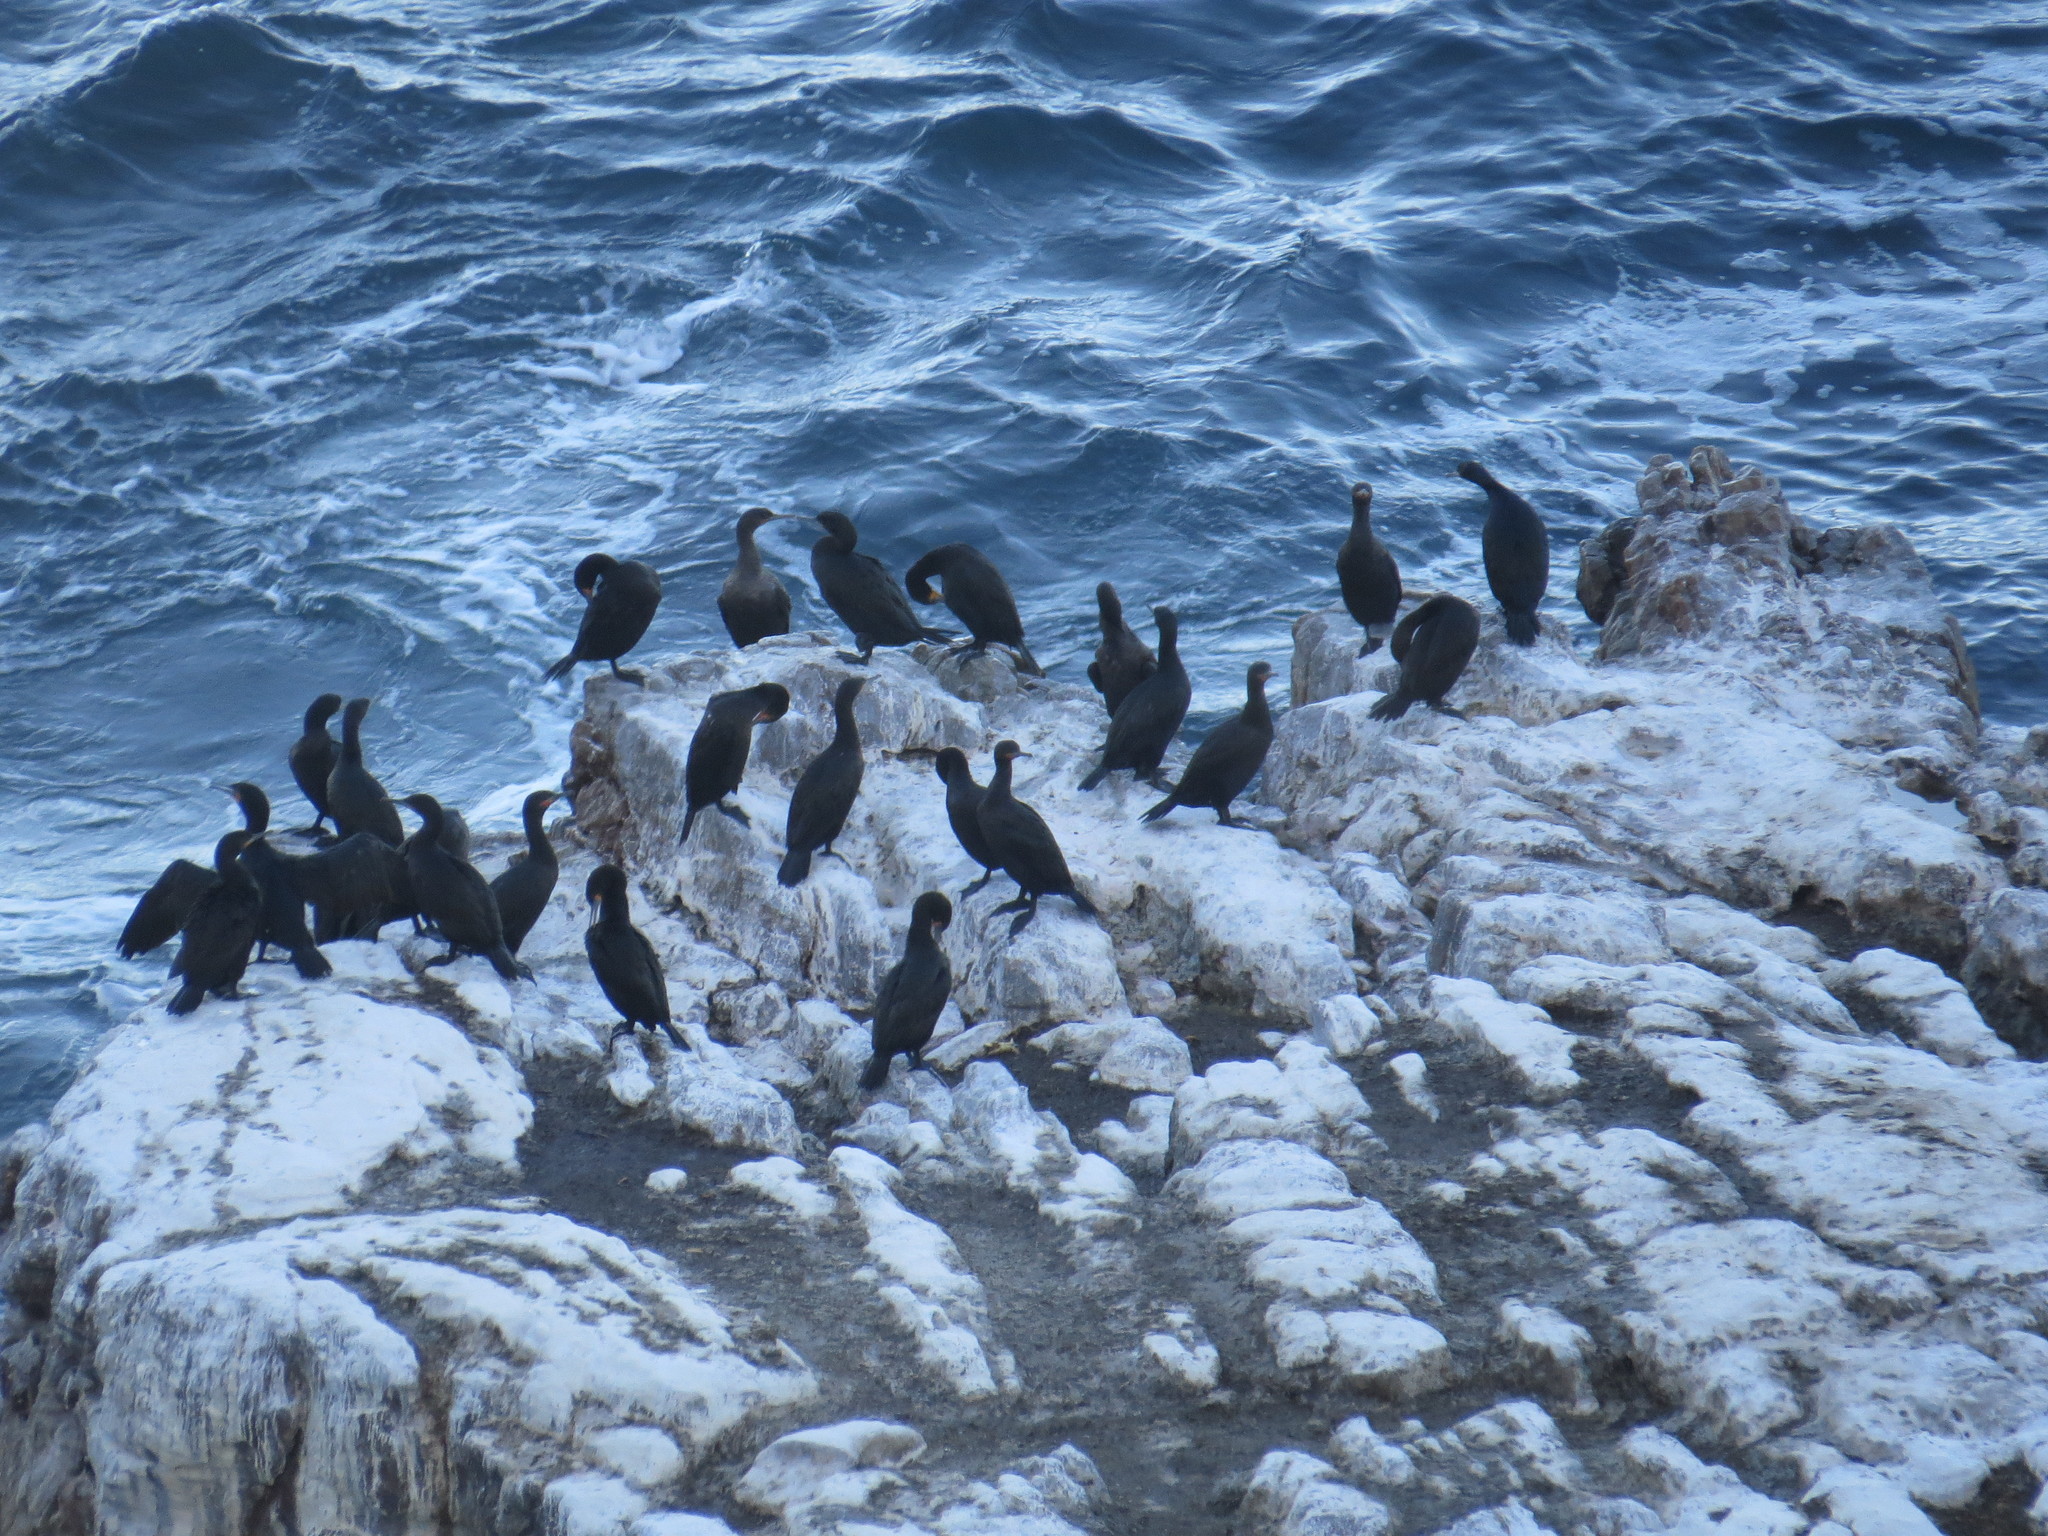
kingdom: Animalia
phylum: Chordata
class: Aves
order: Suliformes
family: Phalacrocoracidae
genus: Phalacrocorax
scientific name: Phalacrocorax capensis
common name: Cape cormorant
